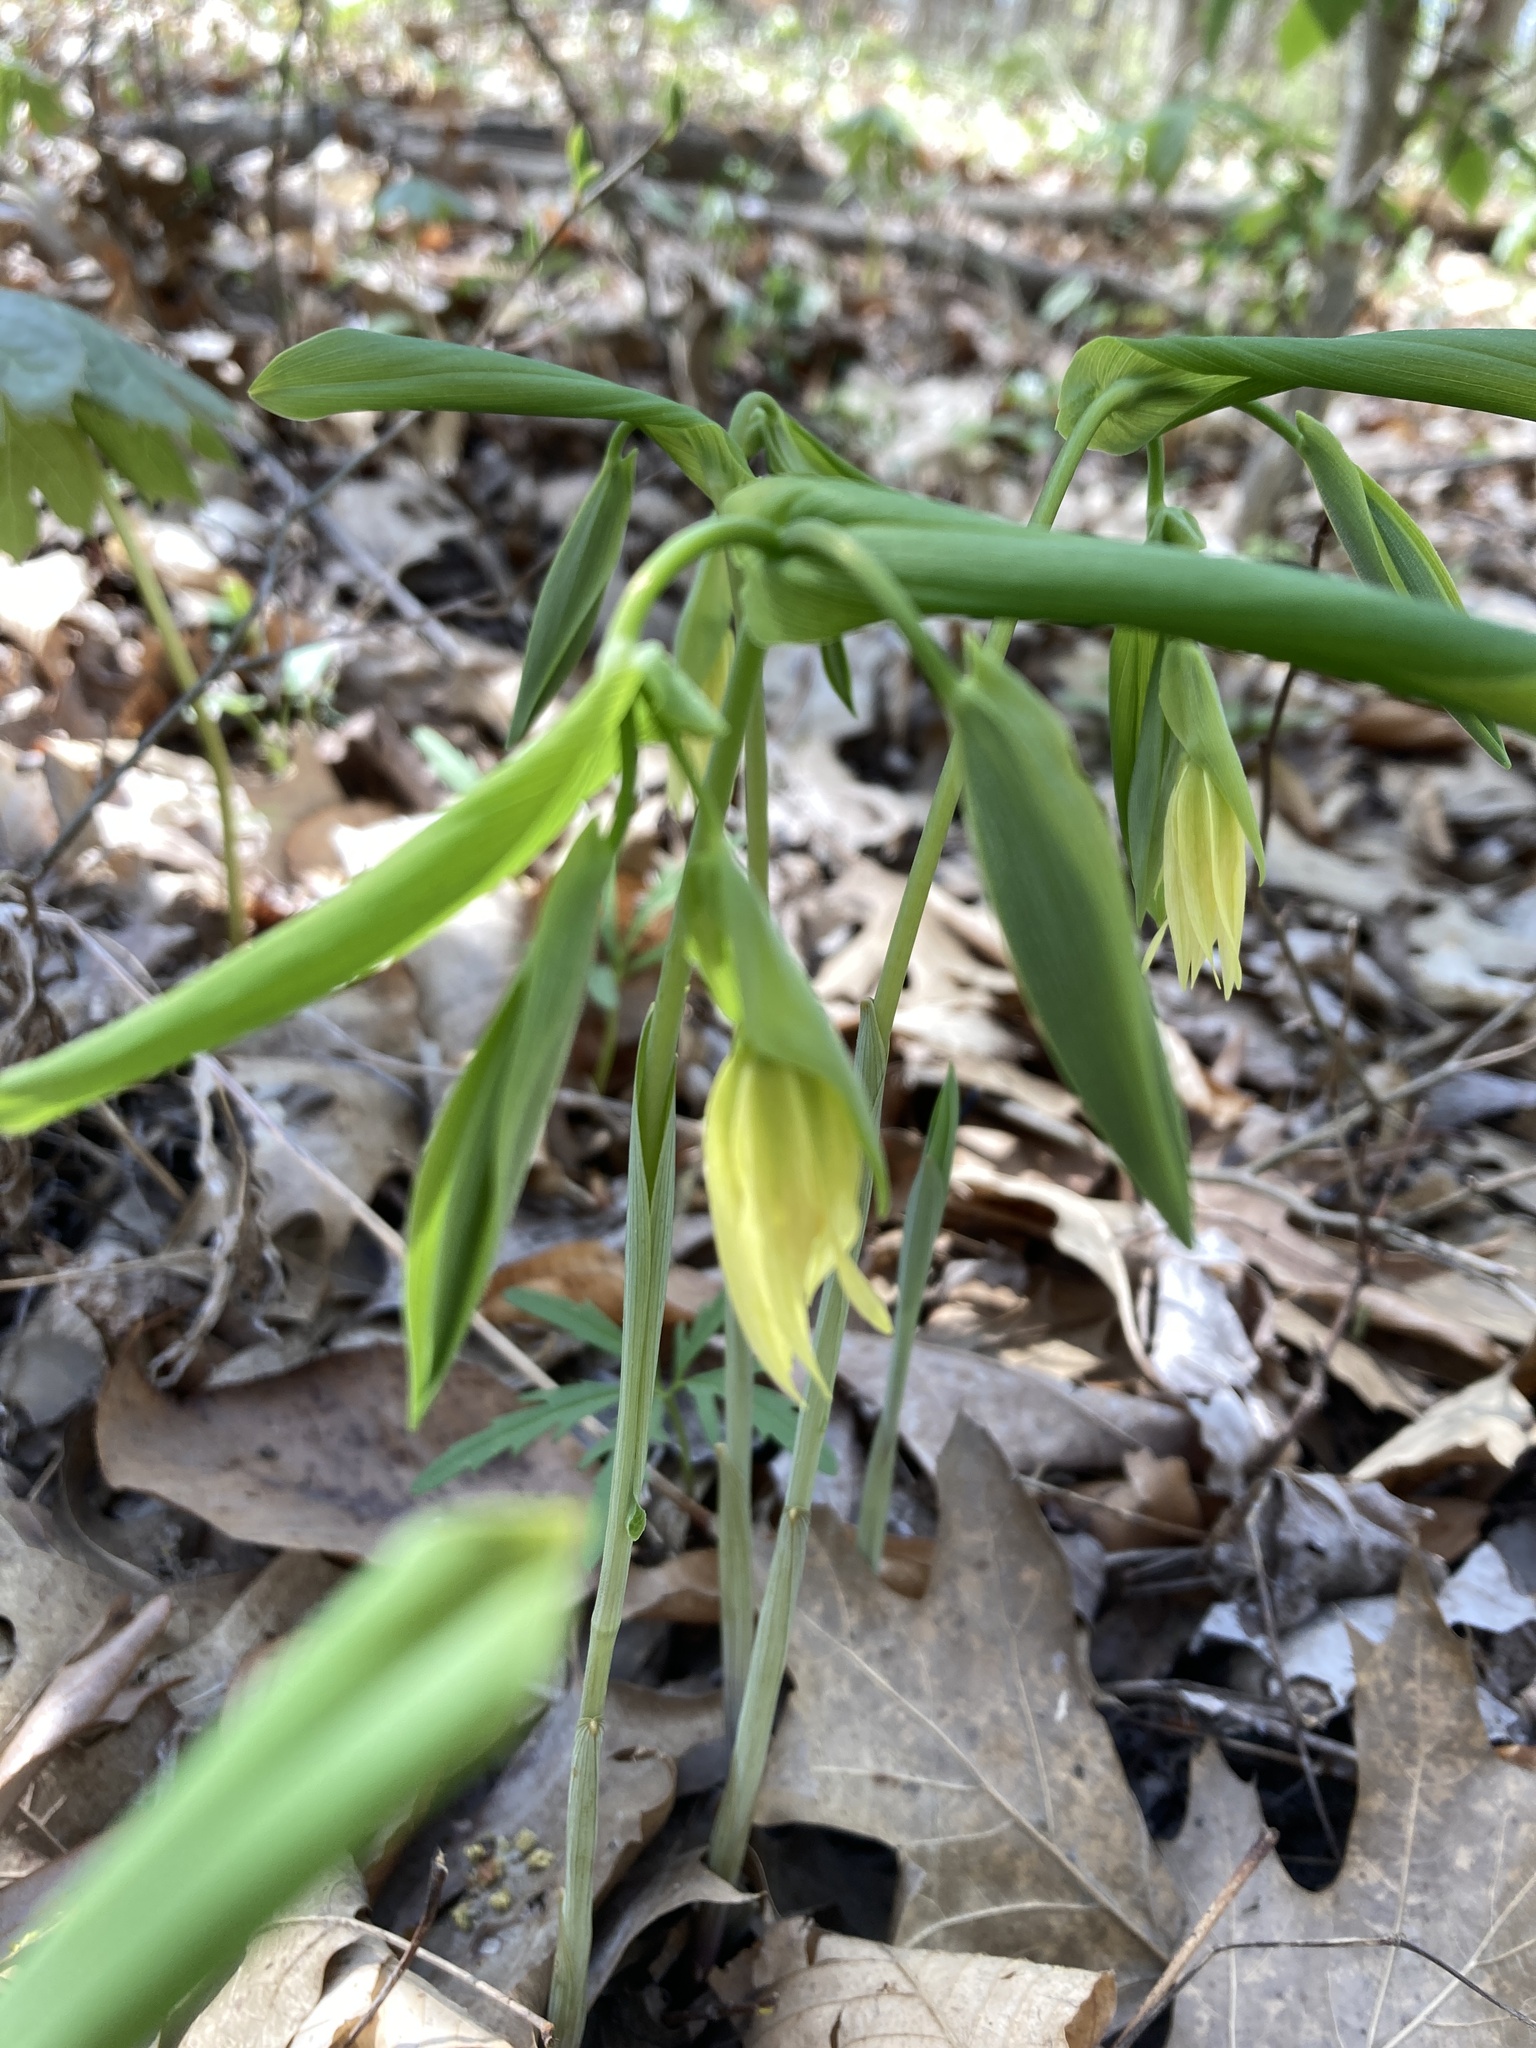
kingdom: Plantae
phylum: Tracheophyta
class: Liliopsida
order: Liliales
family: Colchicaceae
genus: Uvularia
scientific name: Uvularia grandiflora
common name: Bellwort
